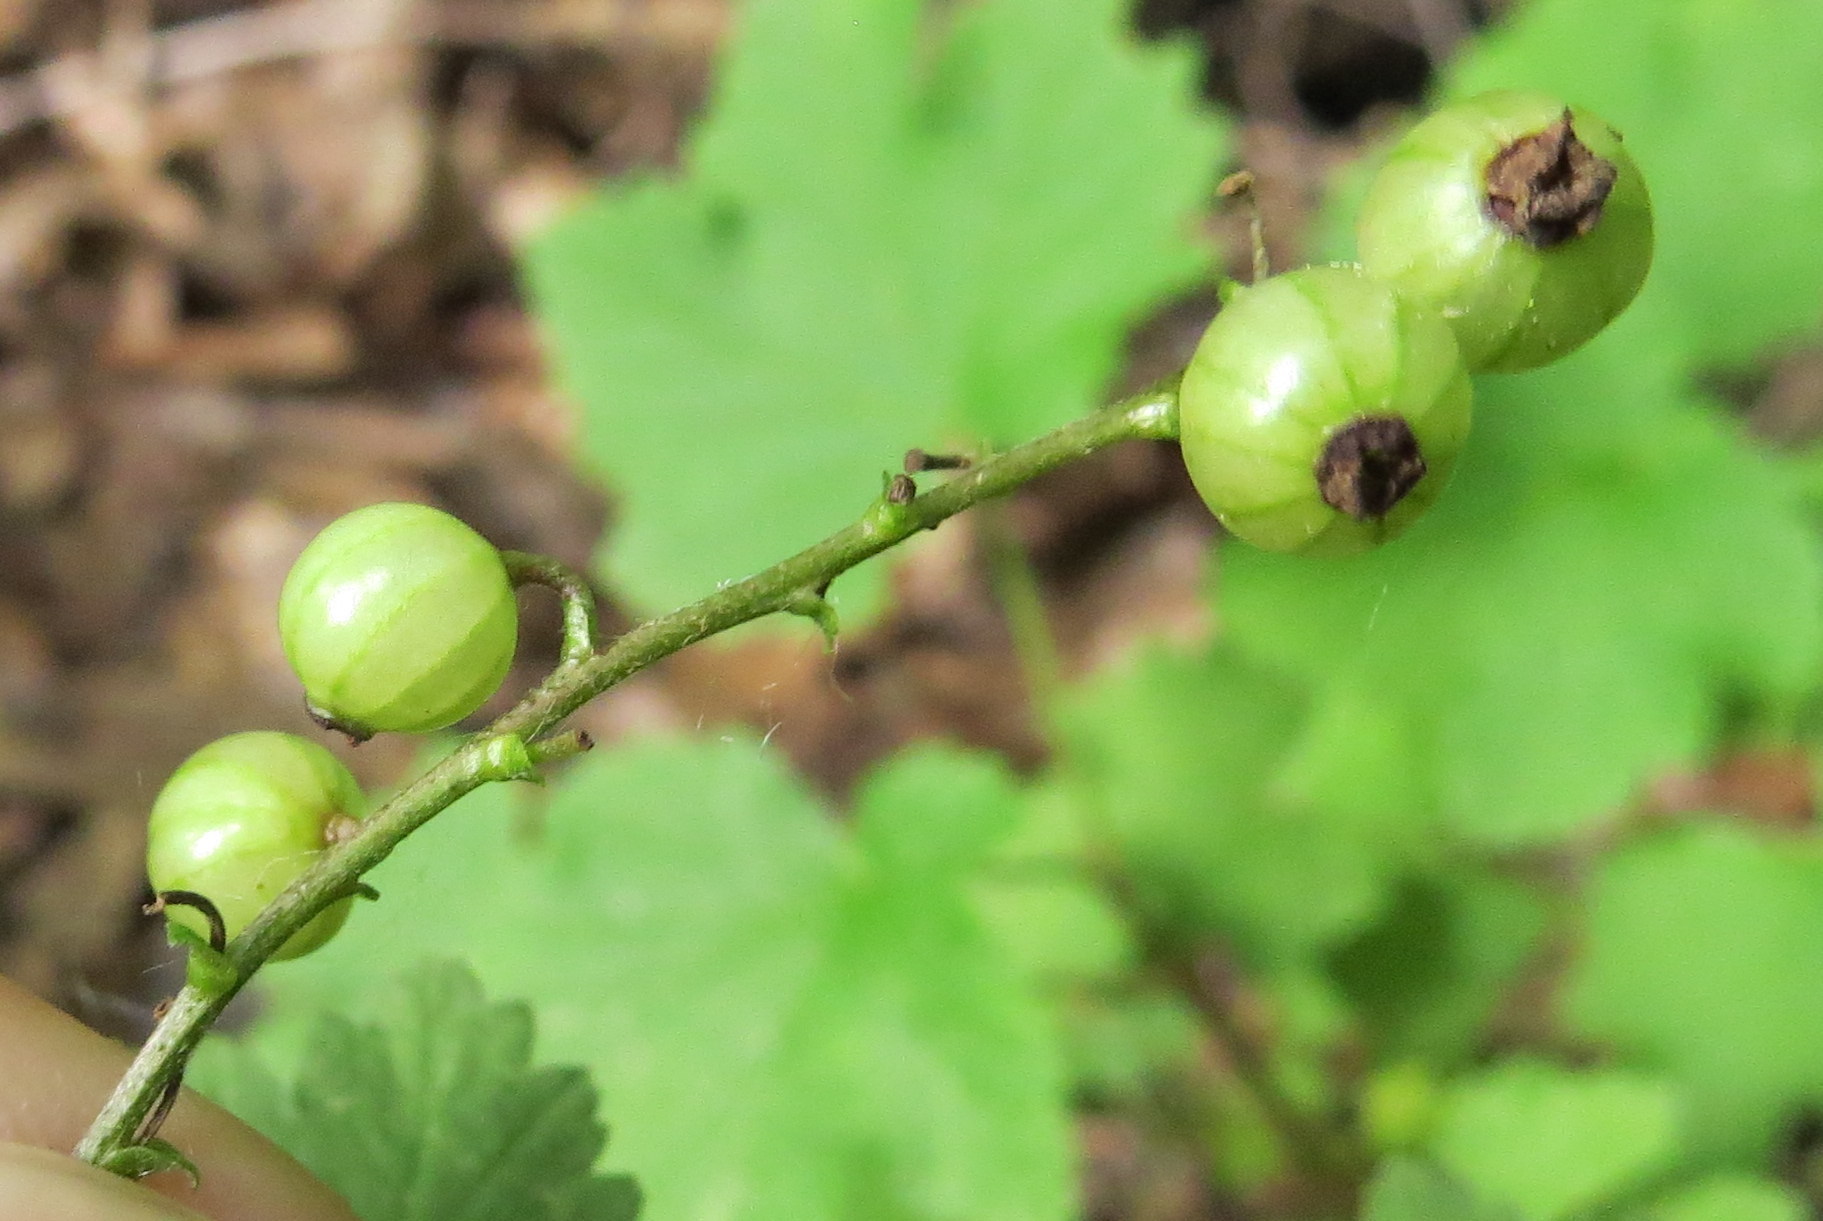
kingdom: Plantae
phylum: Tracheophyta
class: Magnoliopsida
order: Saxifragales
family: Grossulariaceae
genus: Ribes
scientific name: Ribes rubrum
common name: Red currant
